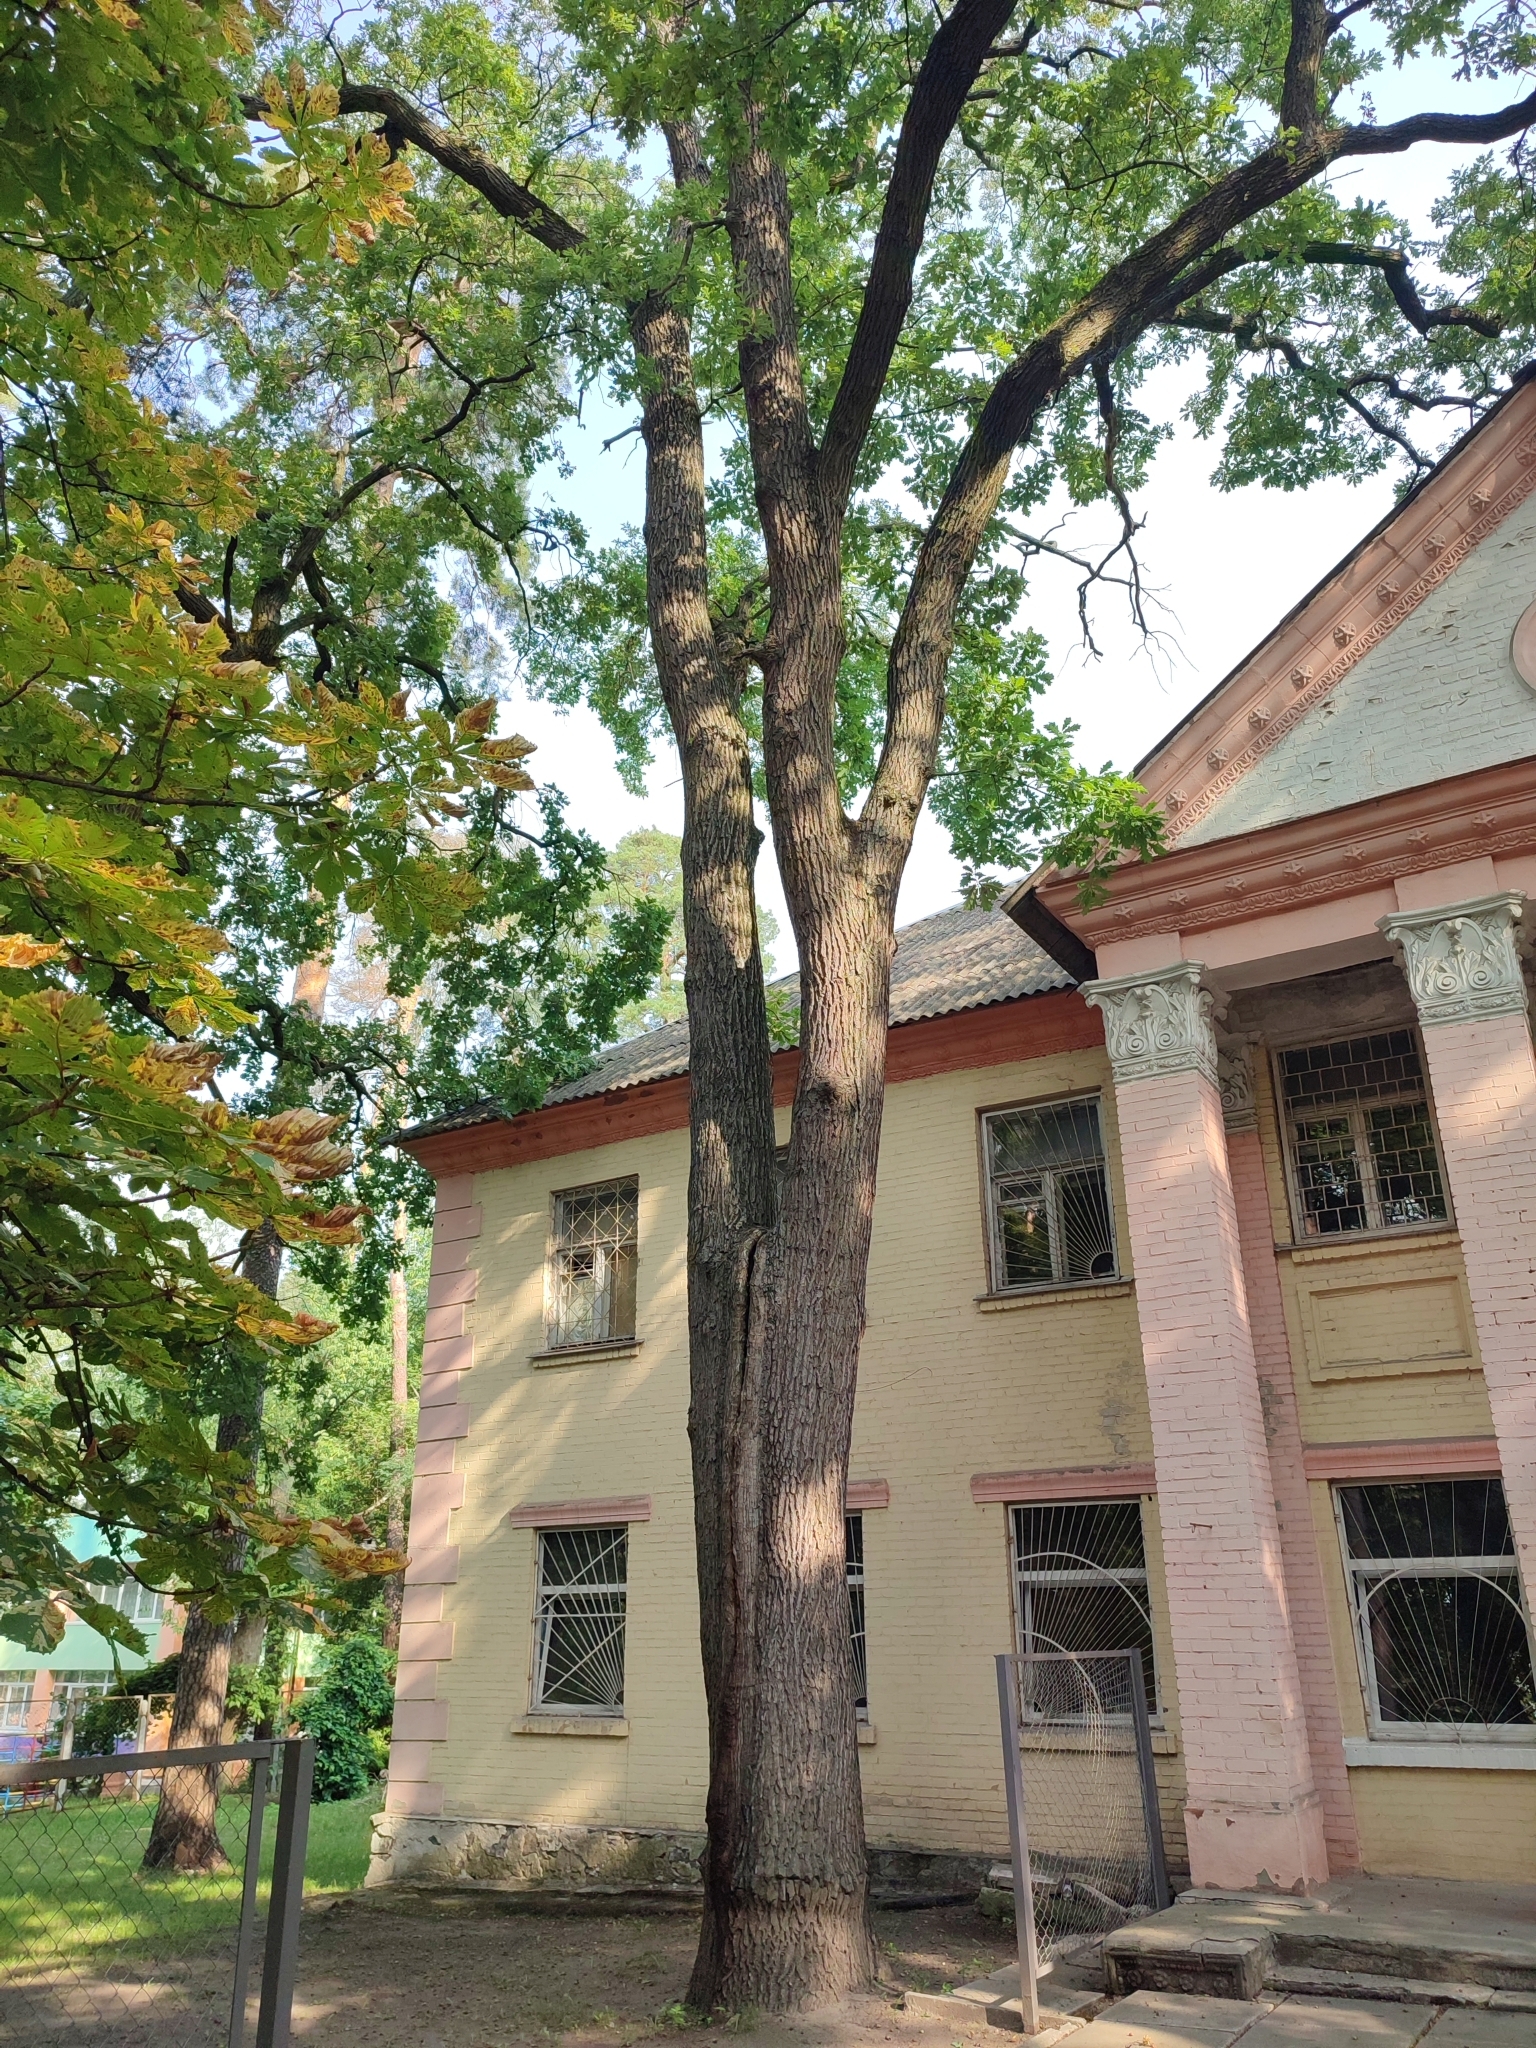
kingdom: Plantae
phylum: Tracheophyta
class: Magnoliopsida
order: Fagales
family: Fagaceae
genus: Quercus
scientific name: Quercus robur
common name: Pedunculate oak
